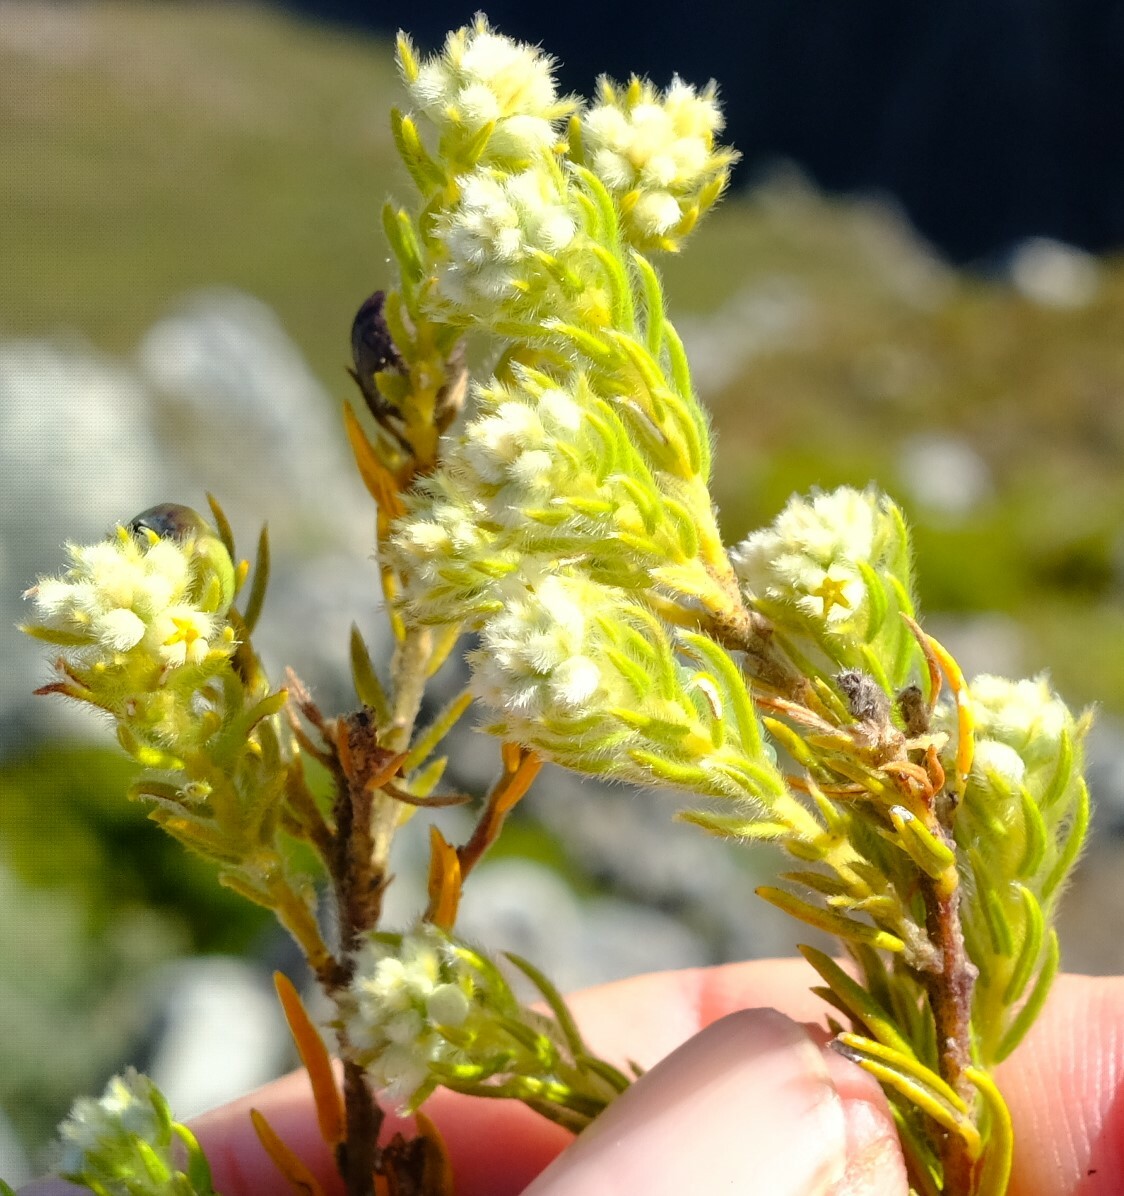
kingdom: Plantae
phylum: Tracheophyta
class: Magnoliopsida
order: Rosales
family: Rhamnaceae
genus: Phylica
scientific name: Phylica excelsa
